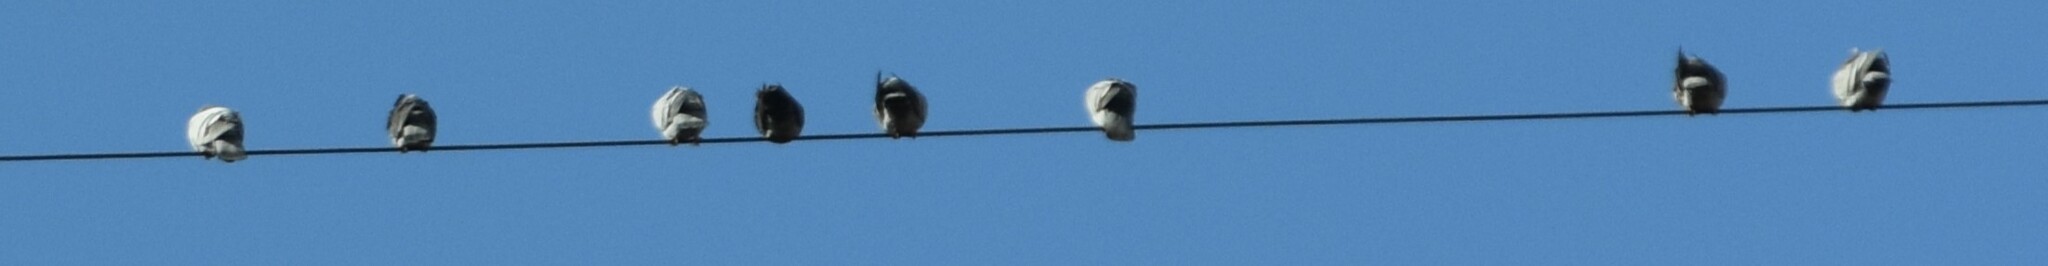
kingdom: Animalia
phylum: Chordata
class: Aves
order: Columbiformes
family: Columbidae
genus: Columba
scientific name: Columba livia
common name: Rock pigeon
